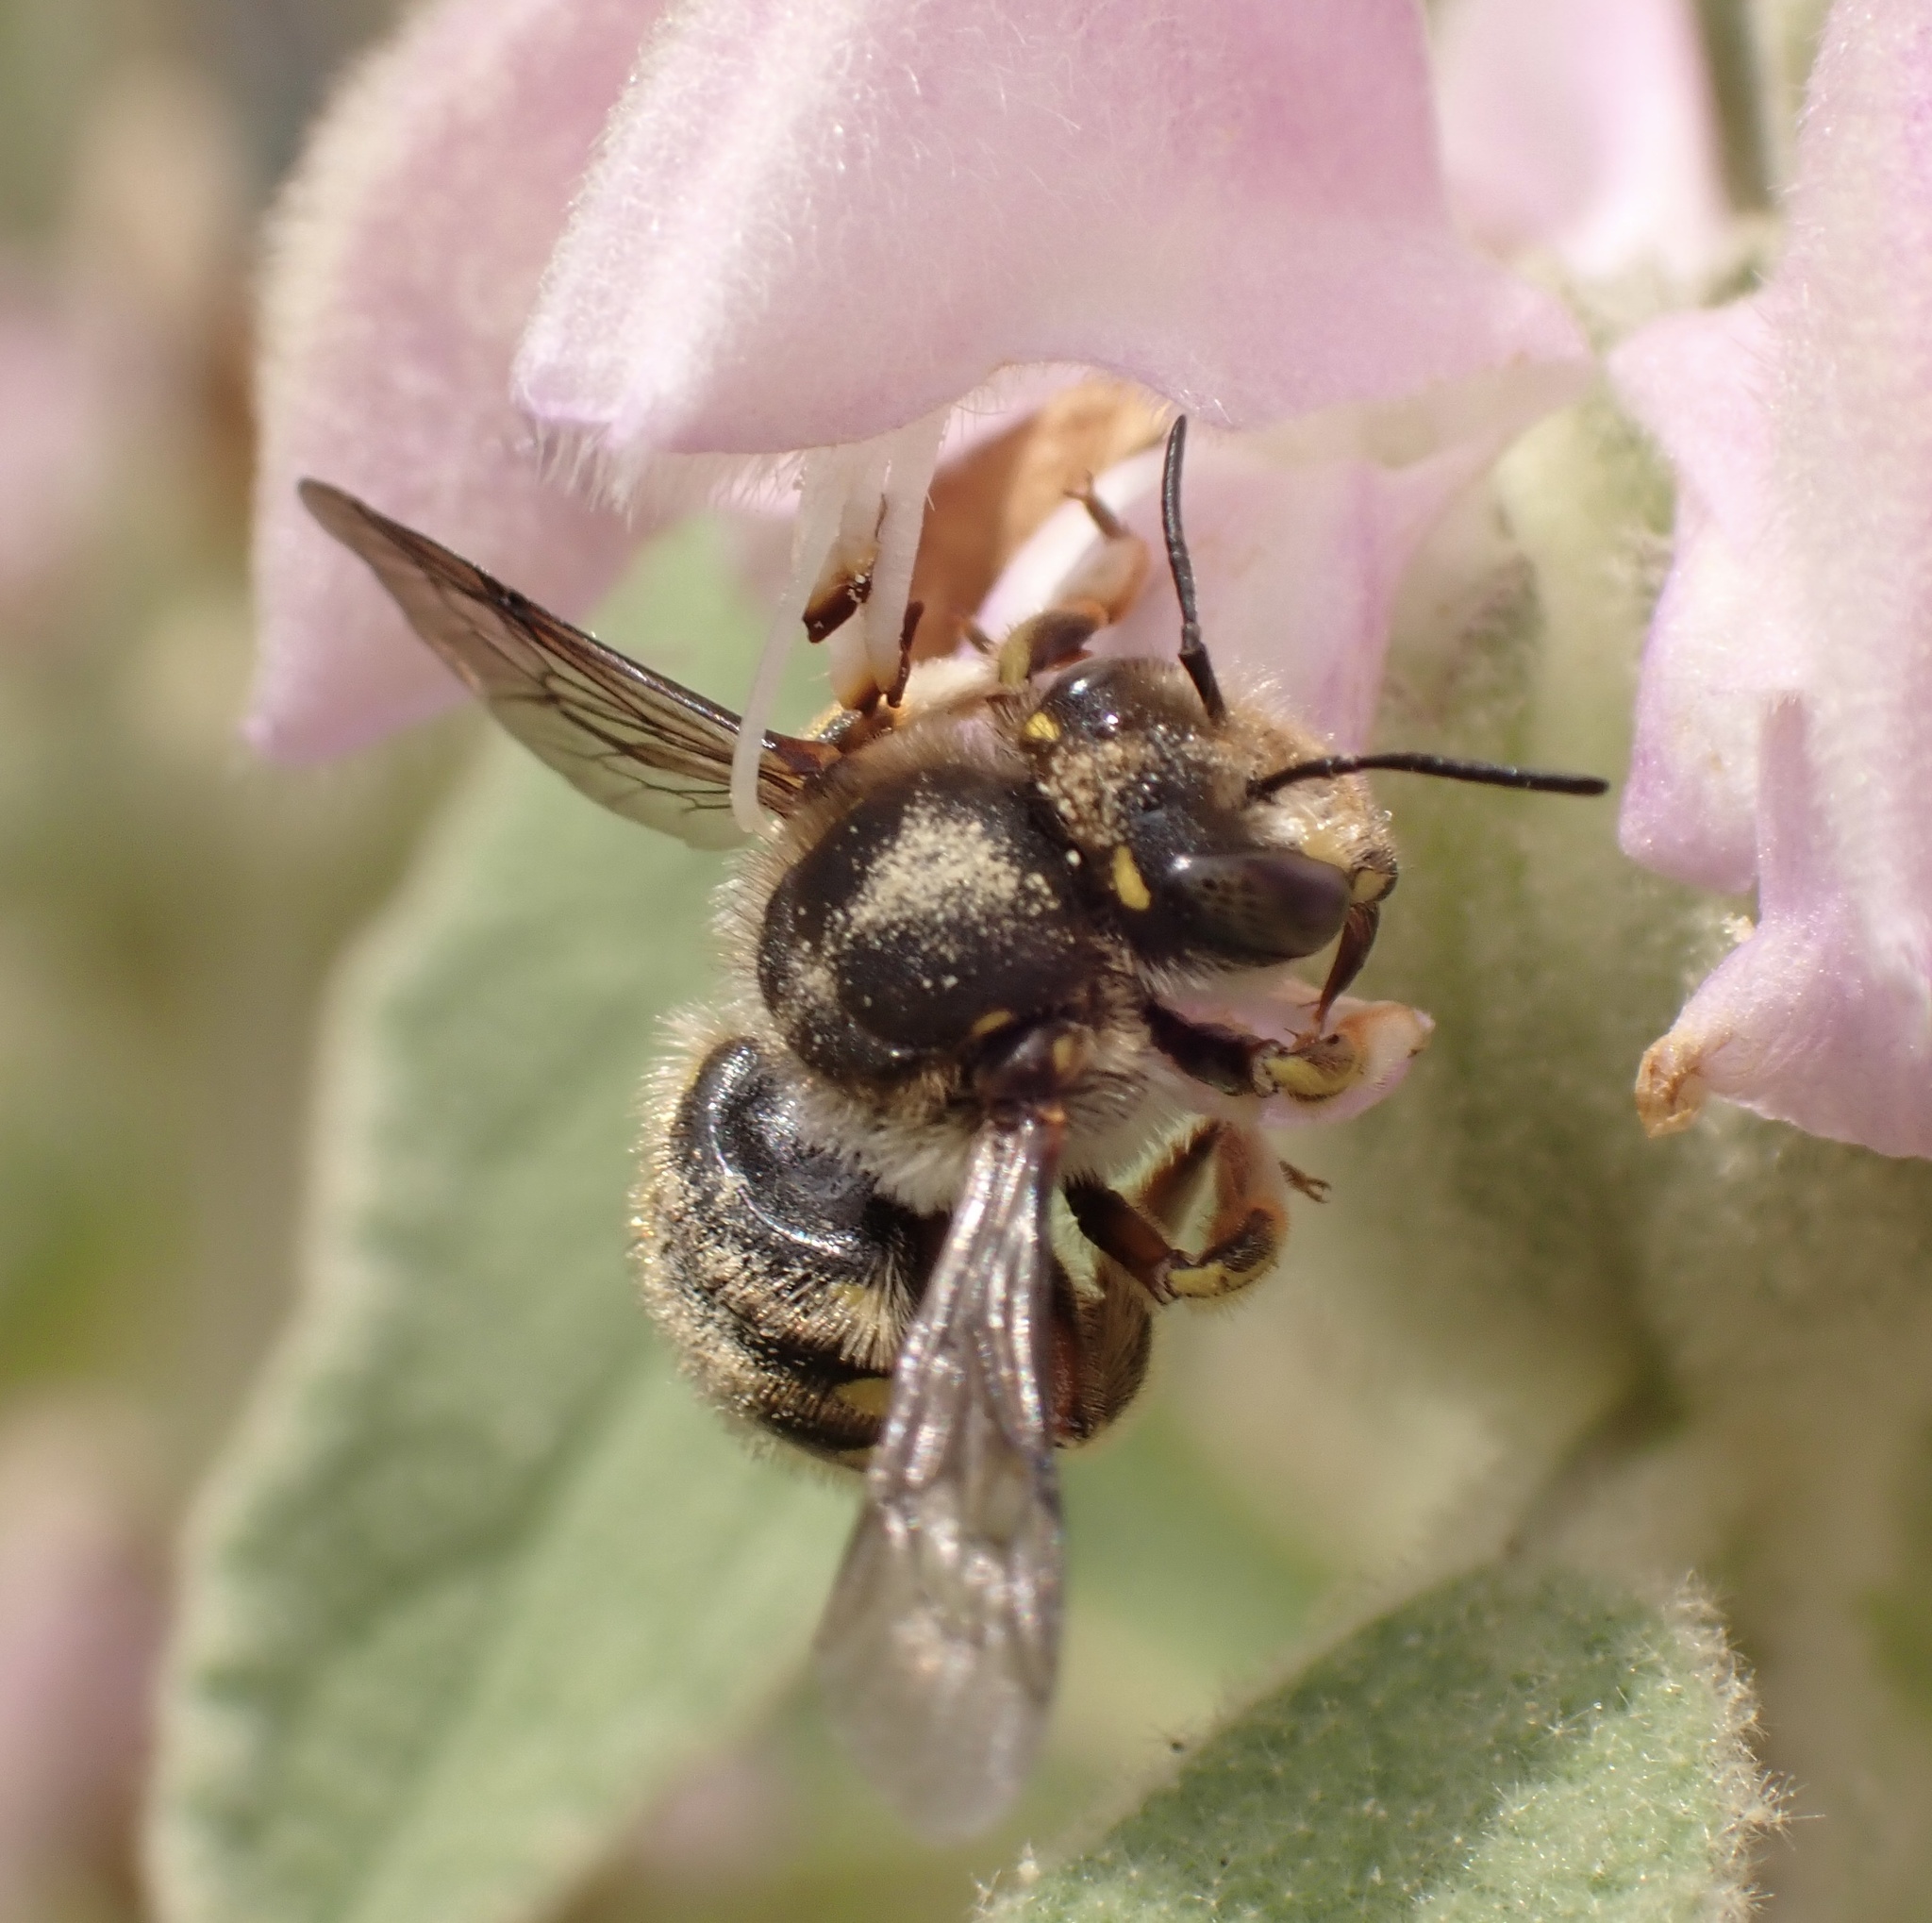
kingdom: Animalia
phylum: Arthropoda
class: Insecta
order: Hymenoptera
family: Megachilidae
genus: Anthidium
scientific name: Anthidium manicatum
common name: Wool carder bee
